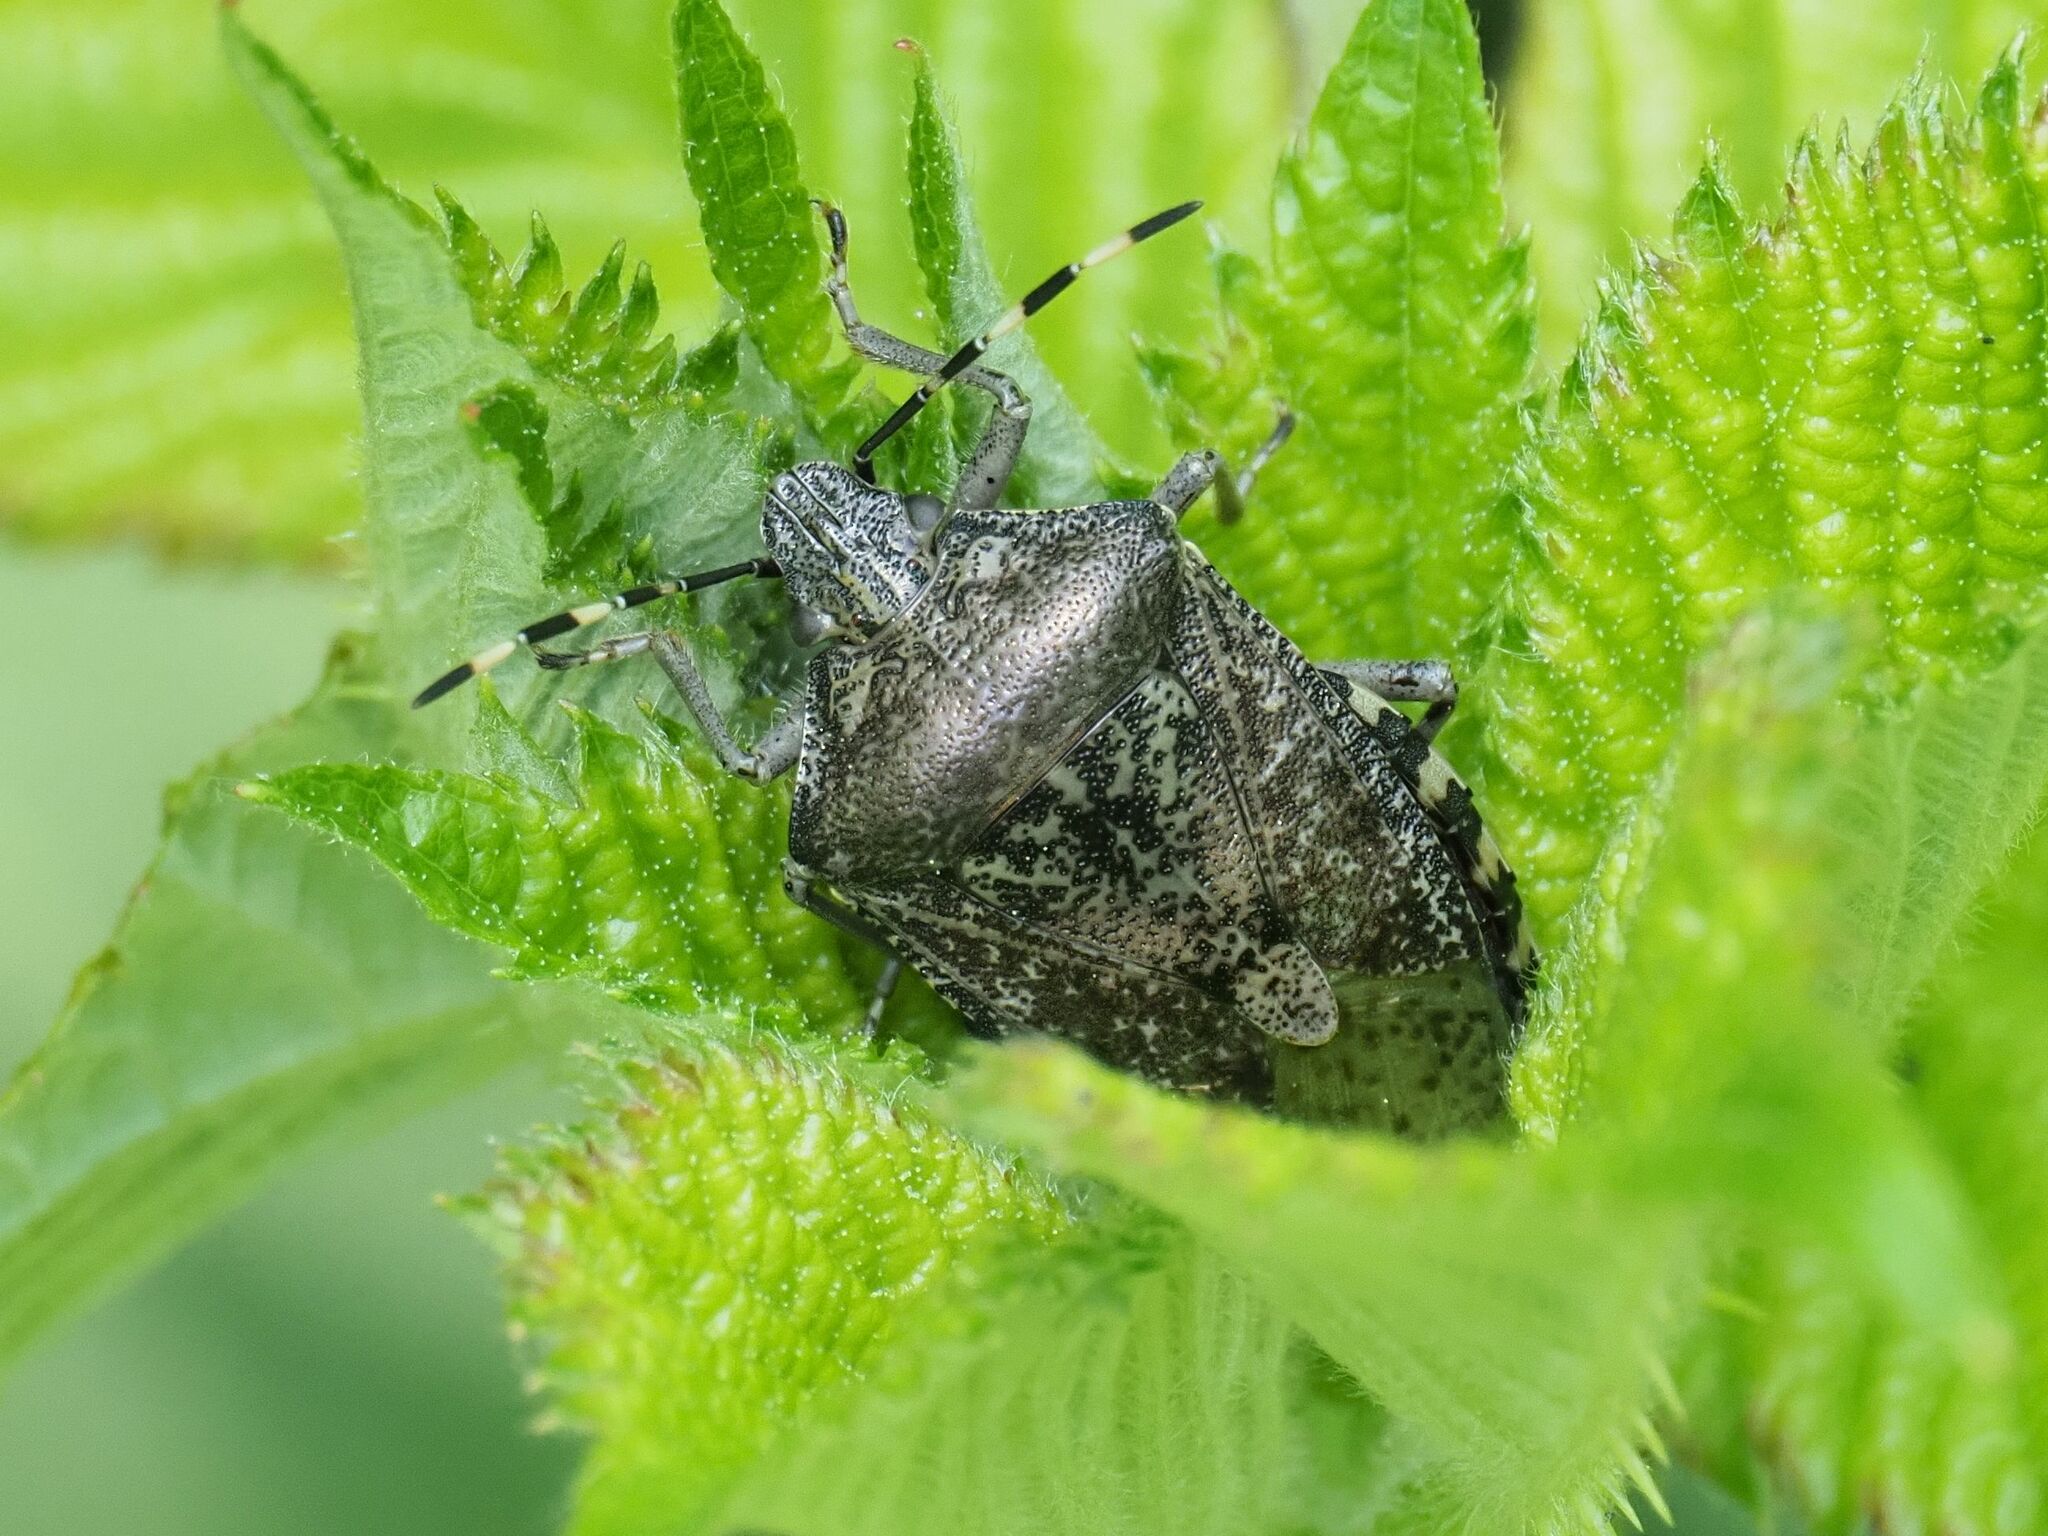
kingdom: Animalia
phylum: Arthropoda
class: Insecta
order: Hemiptera
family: Pentatomidae
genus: Rhaphigaster
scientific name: Rhaphigaster nebulosa
